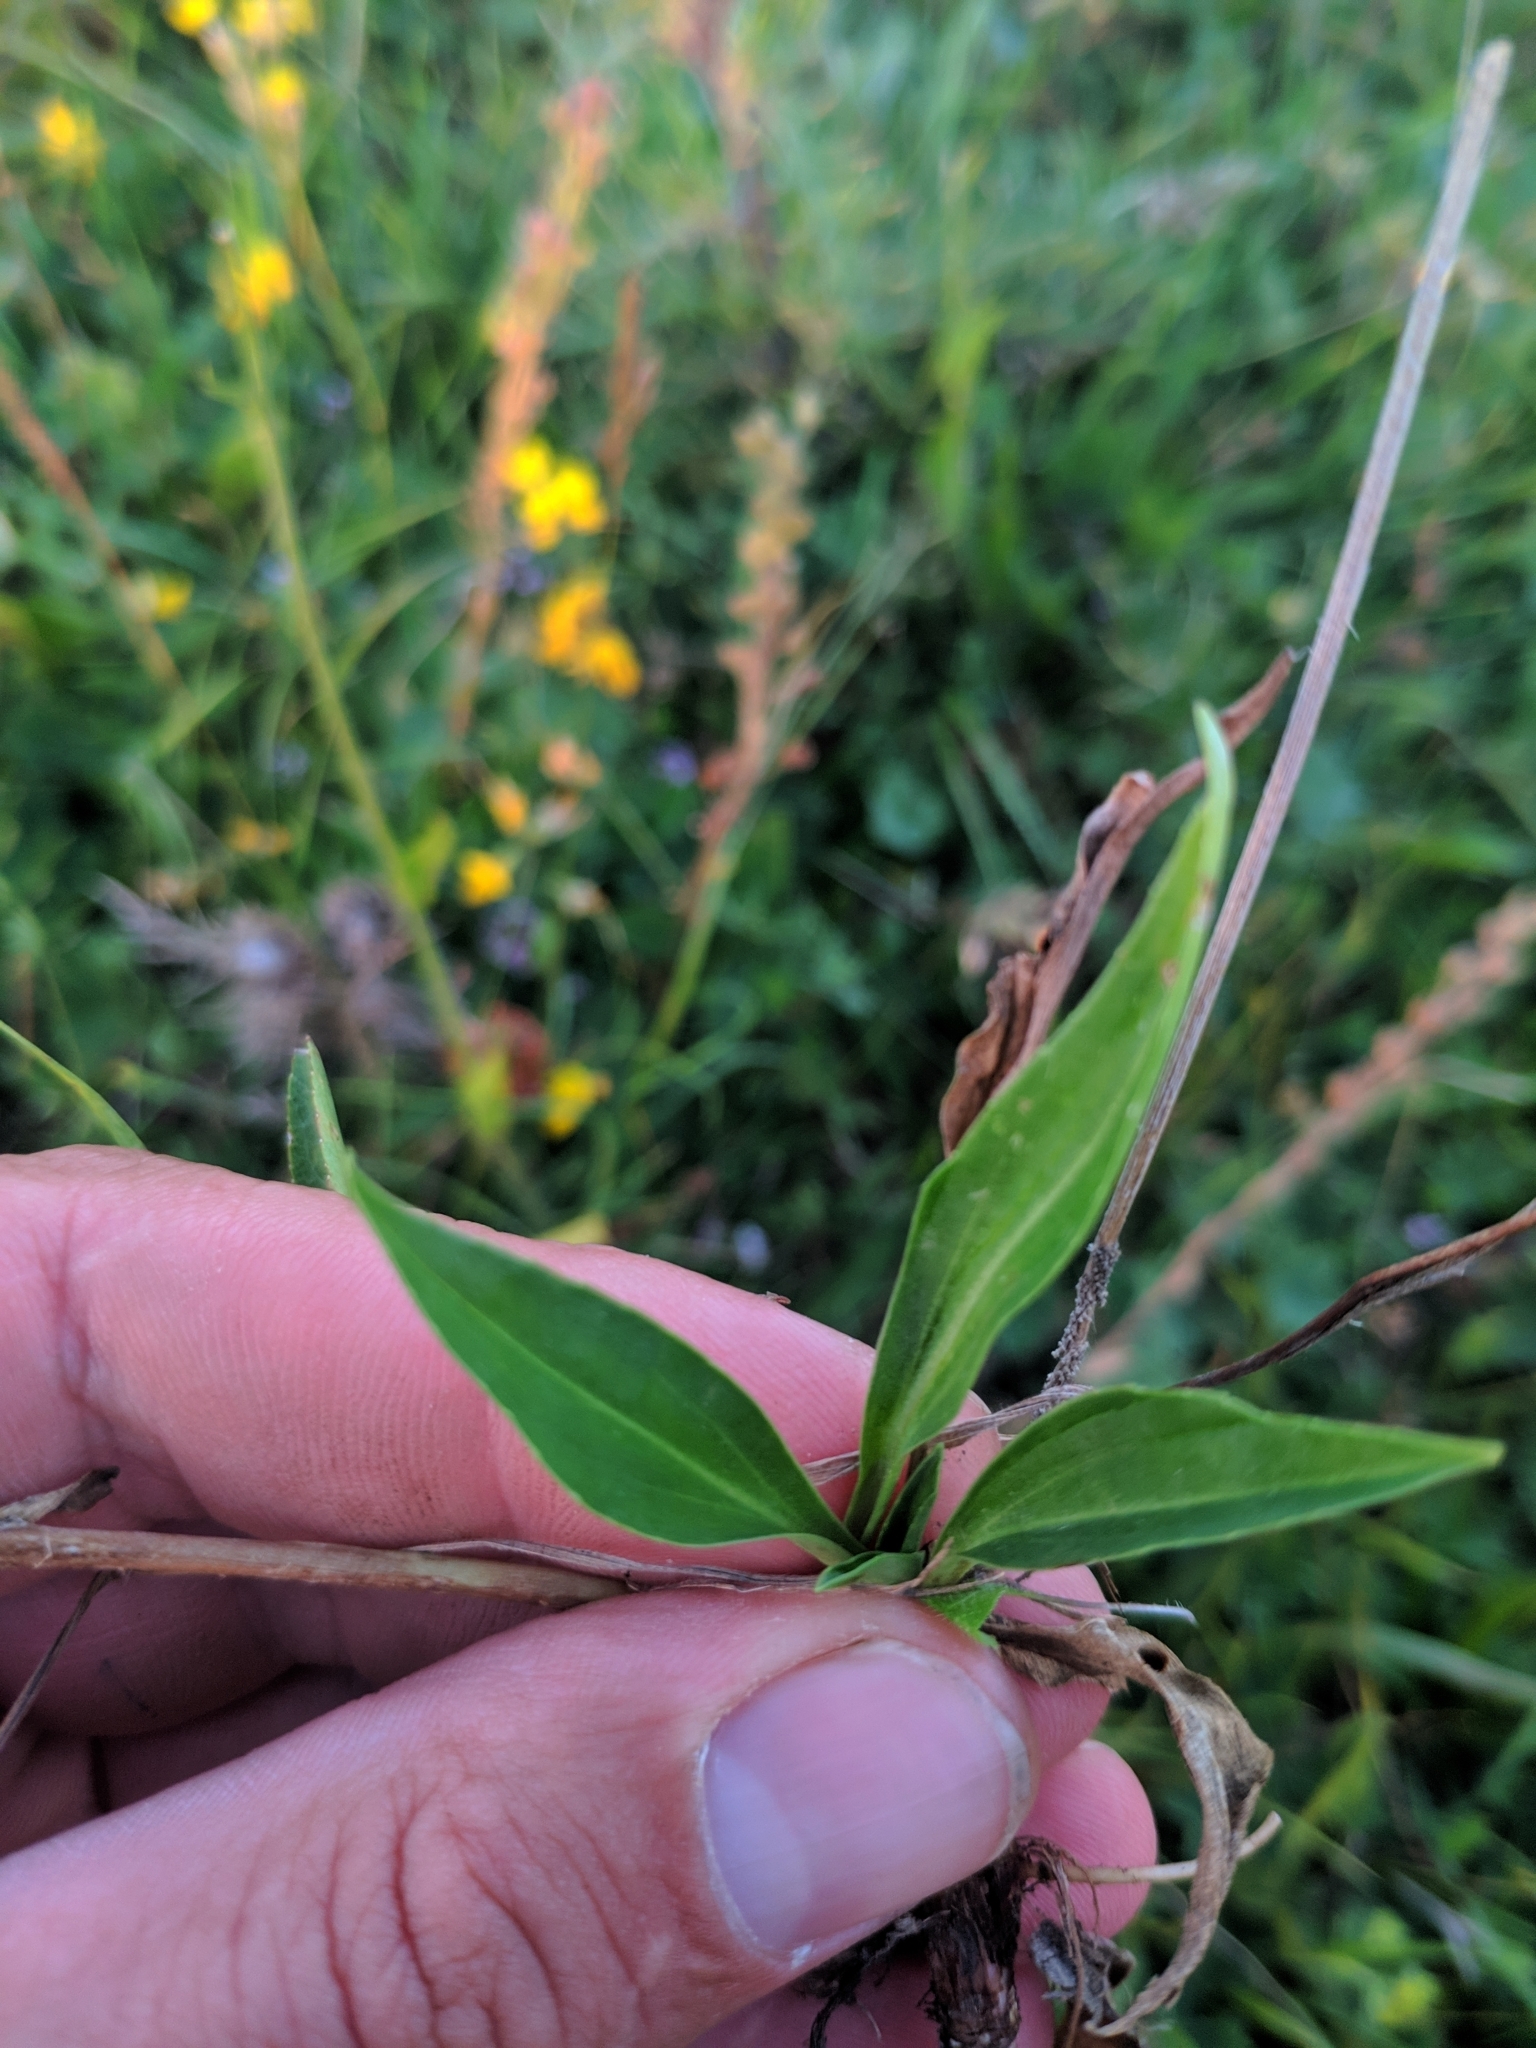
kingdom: Plantae
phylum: Tracheophyta
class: Magnoliopsida
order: Lamiales
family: Plantaginaceae
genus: Veronica
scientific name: Veronica gentianoides
